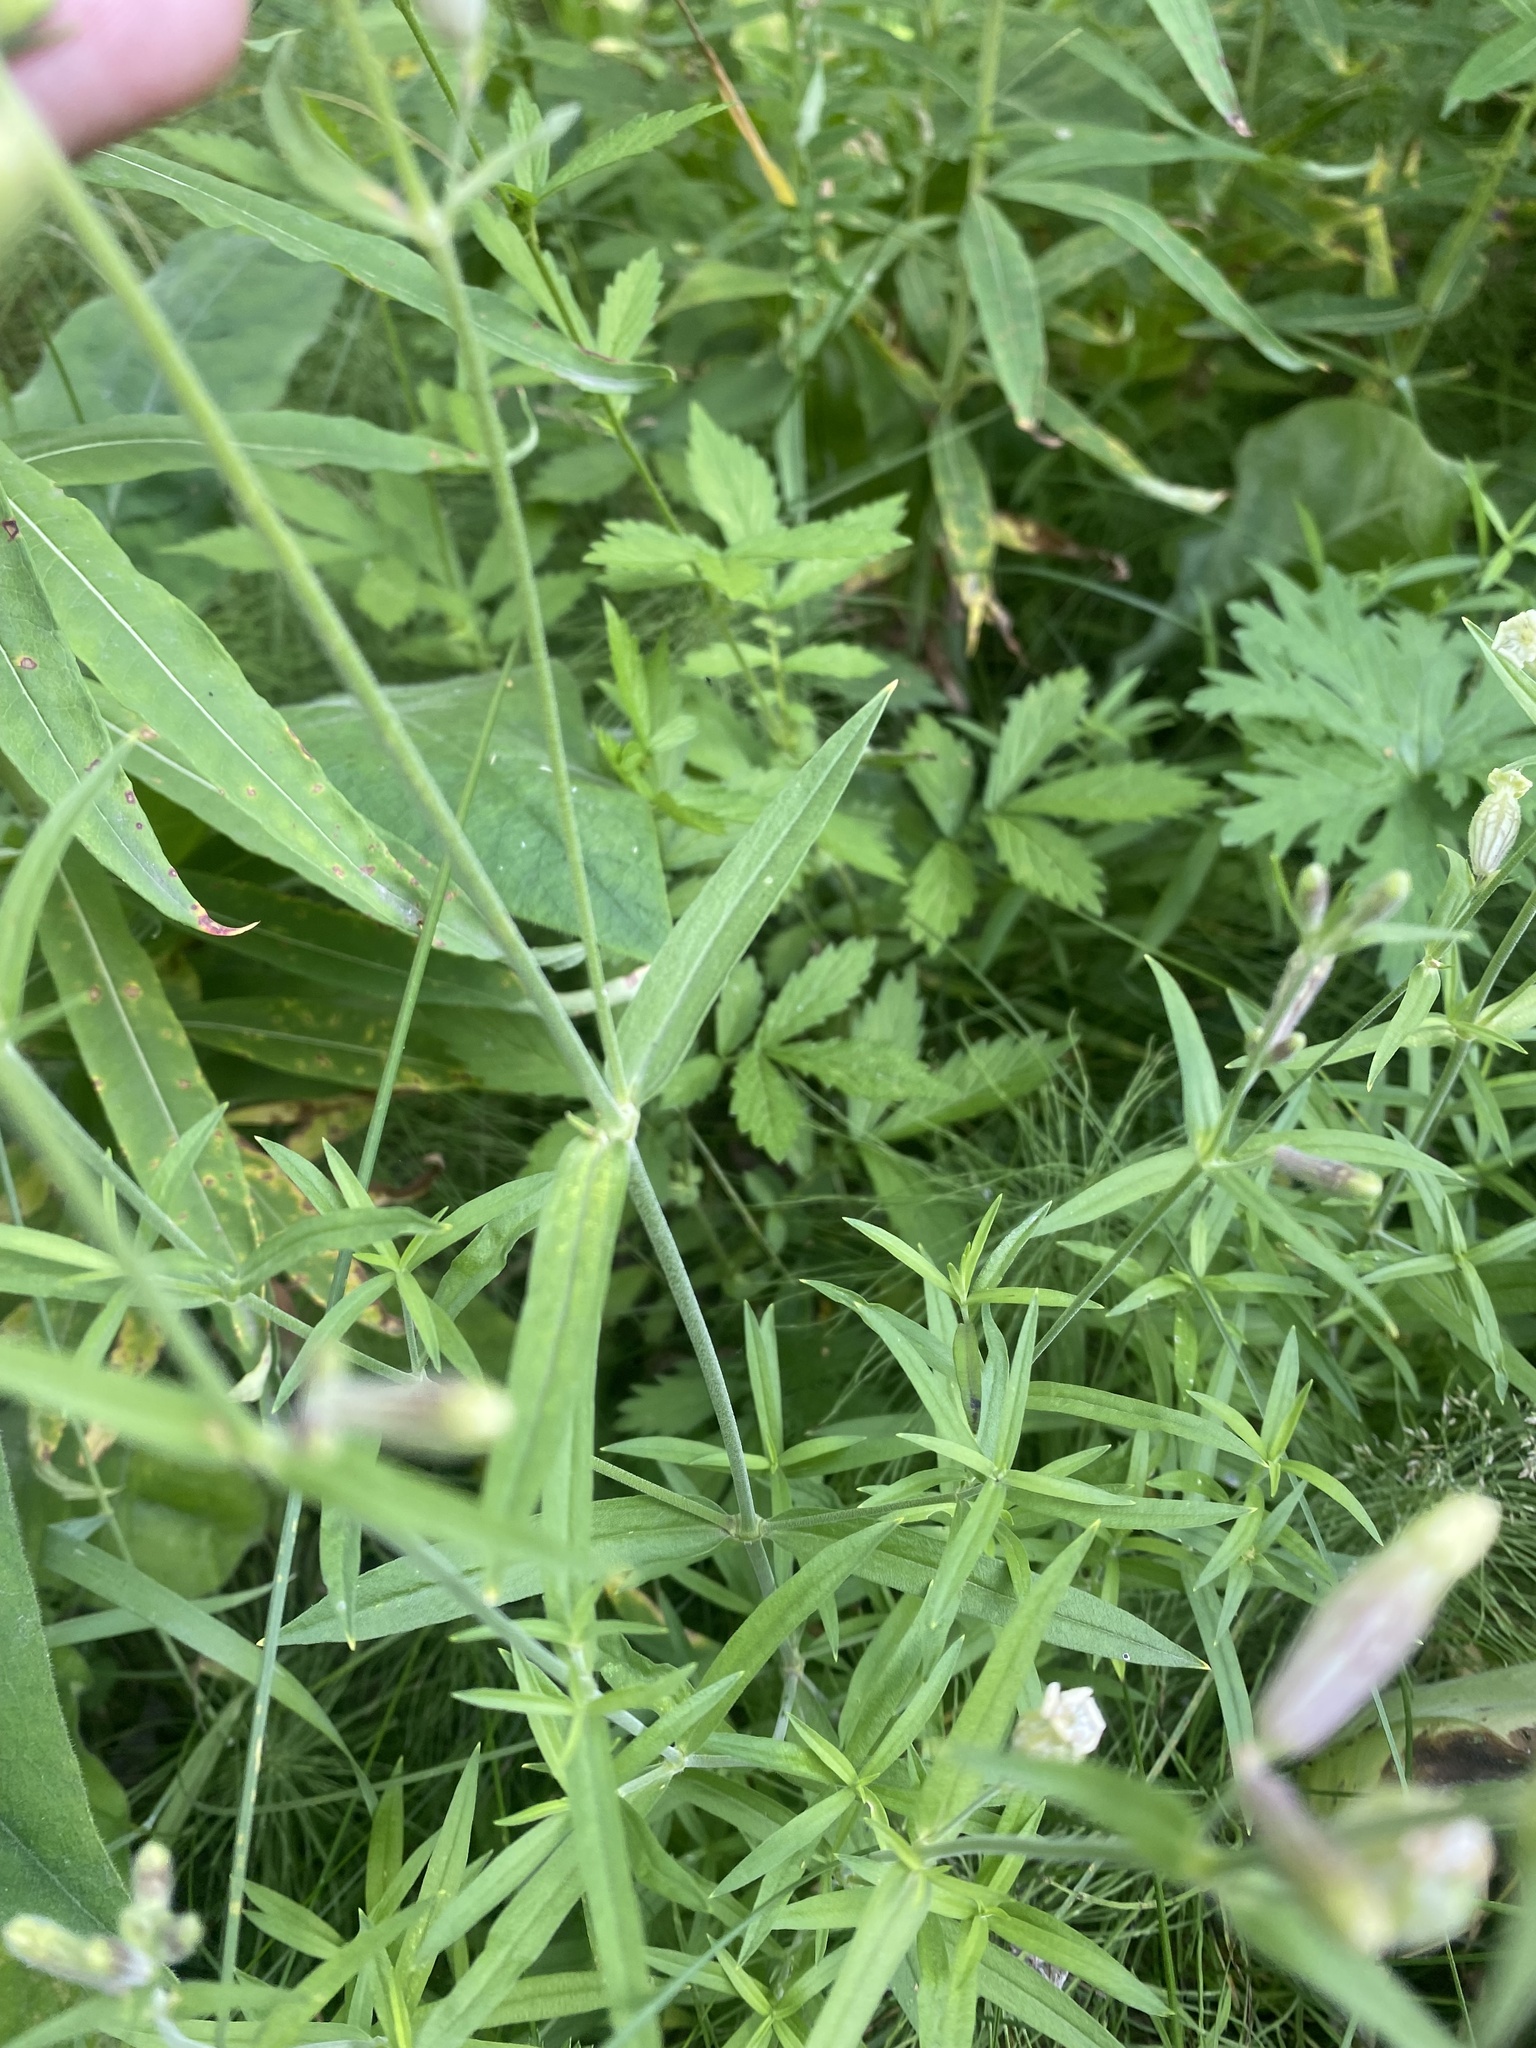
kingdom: Plantae
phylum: Tracheophyta
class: Magnoliopsida
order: Caryophyllales
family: Caryophyllaceae
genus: Silene
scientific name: Silene amoena
